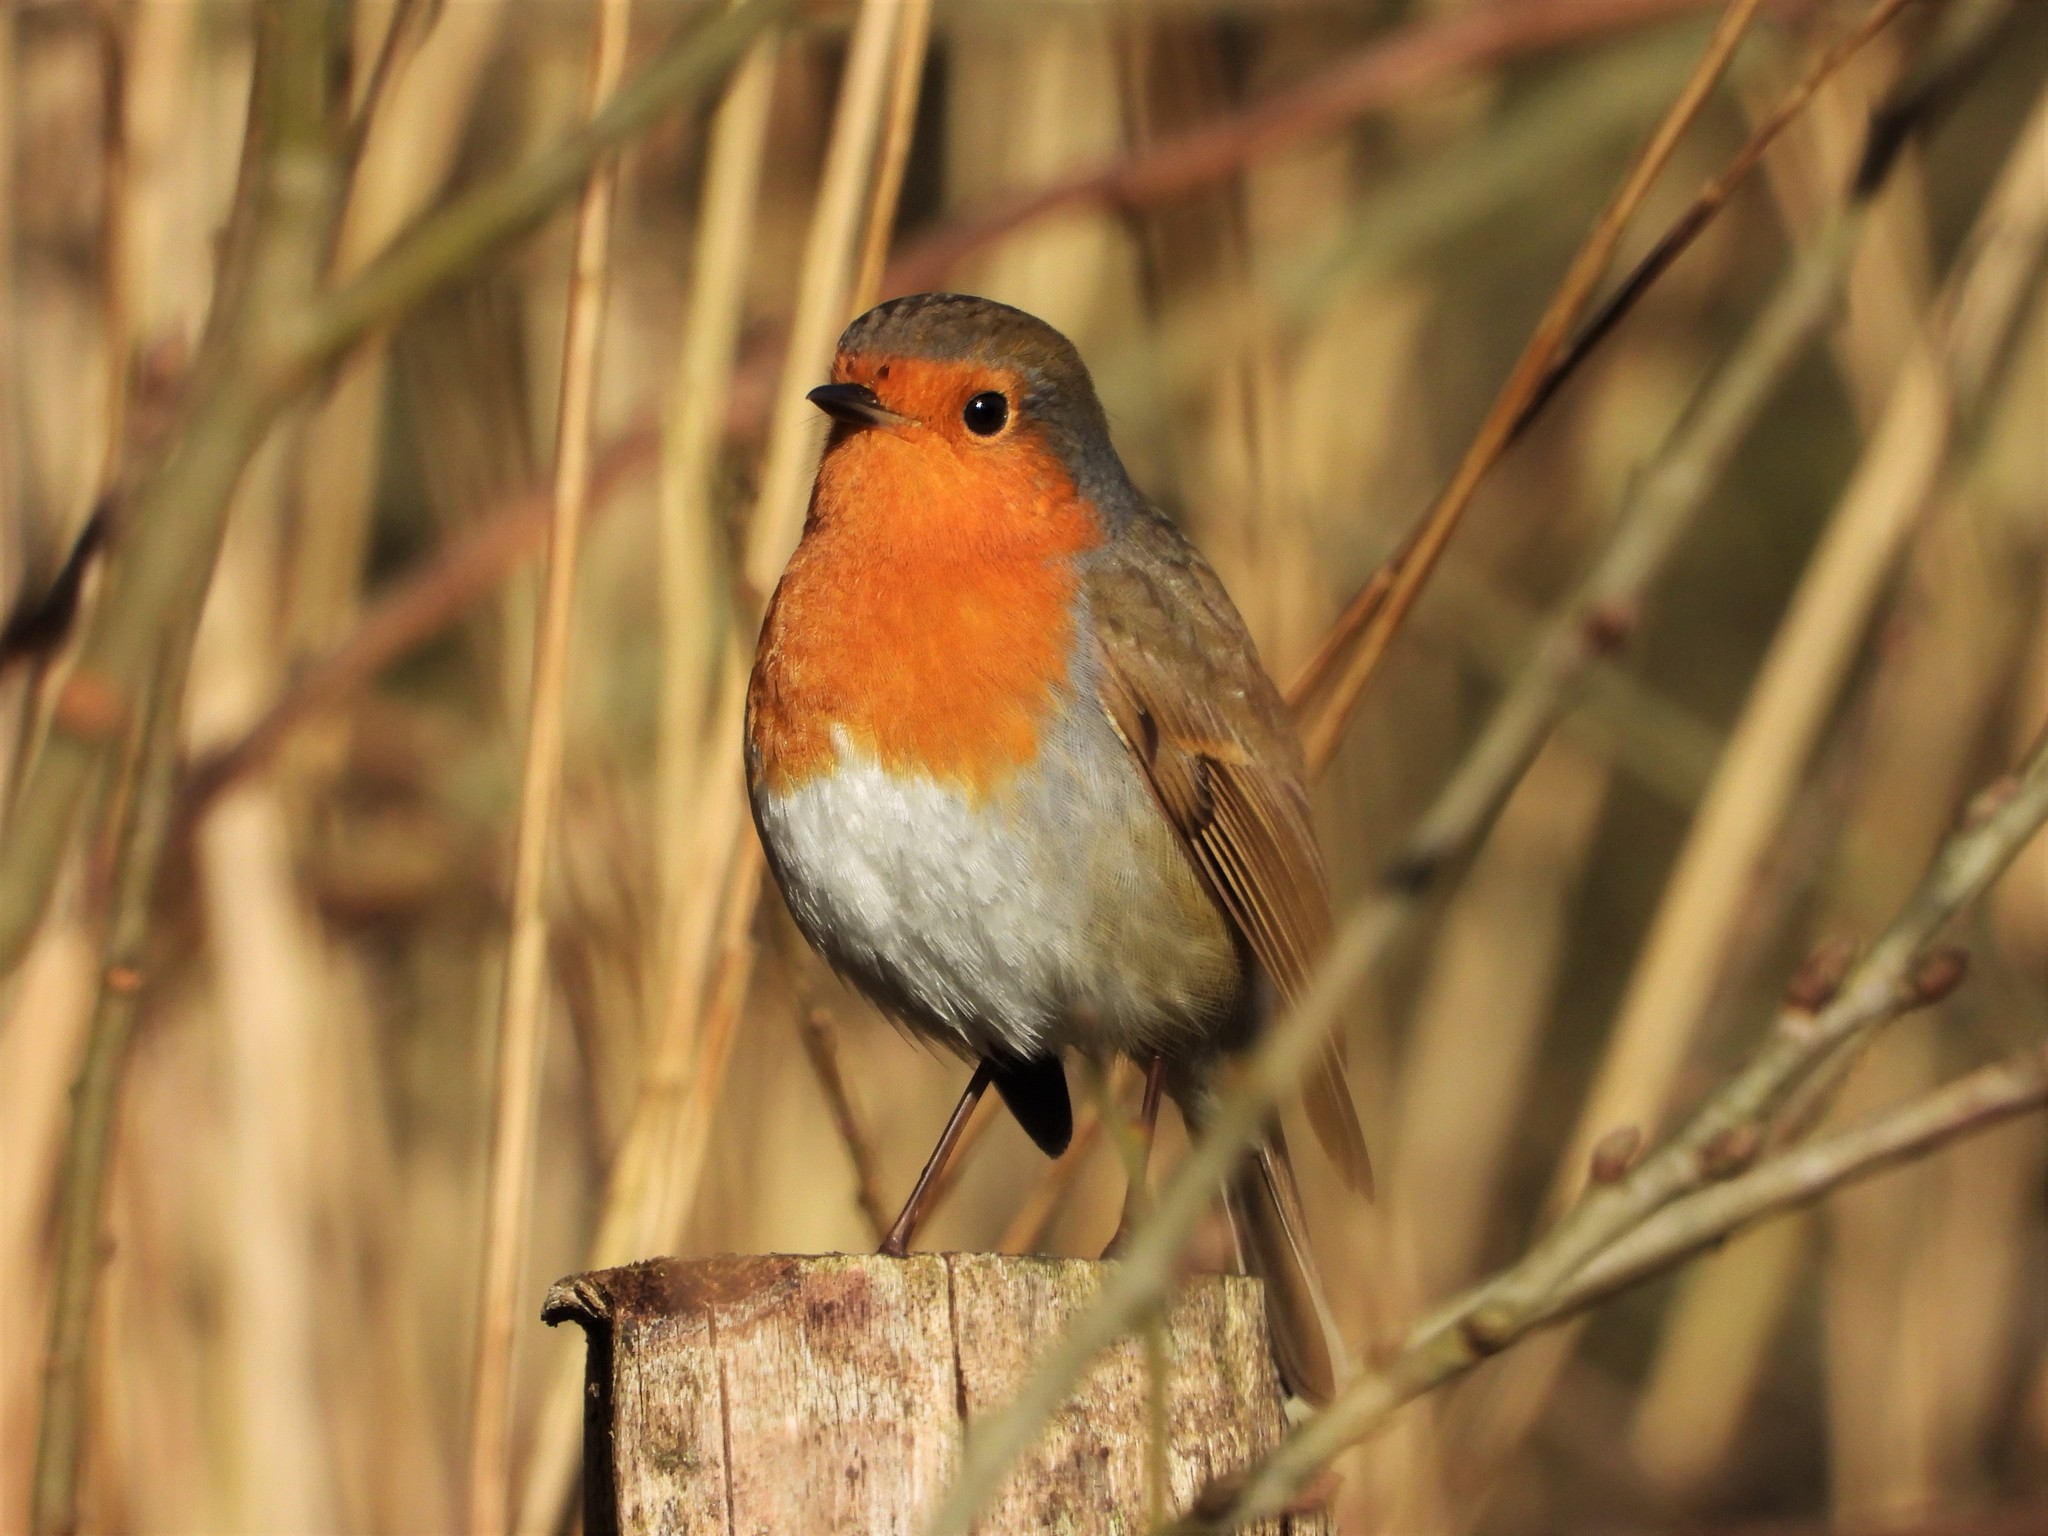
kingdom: Animalia
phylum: Chordata
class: Aves
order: Passeriformes
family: Muscicapidae
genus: Erithacus
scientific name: Erithacus rubecula
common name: European robin
